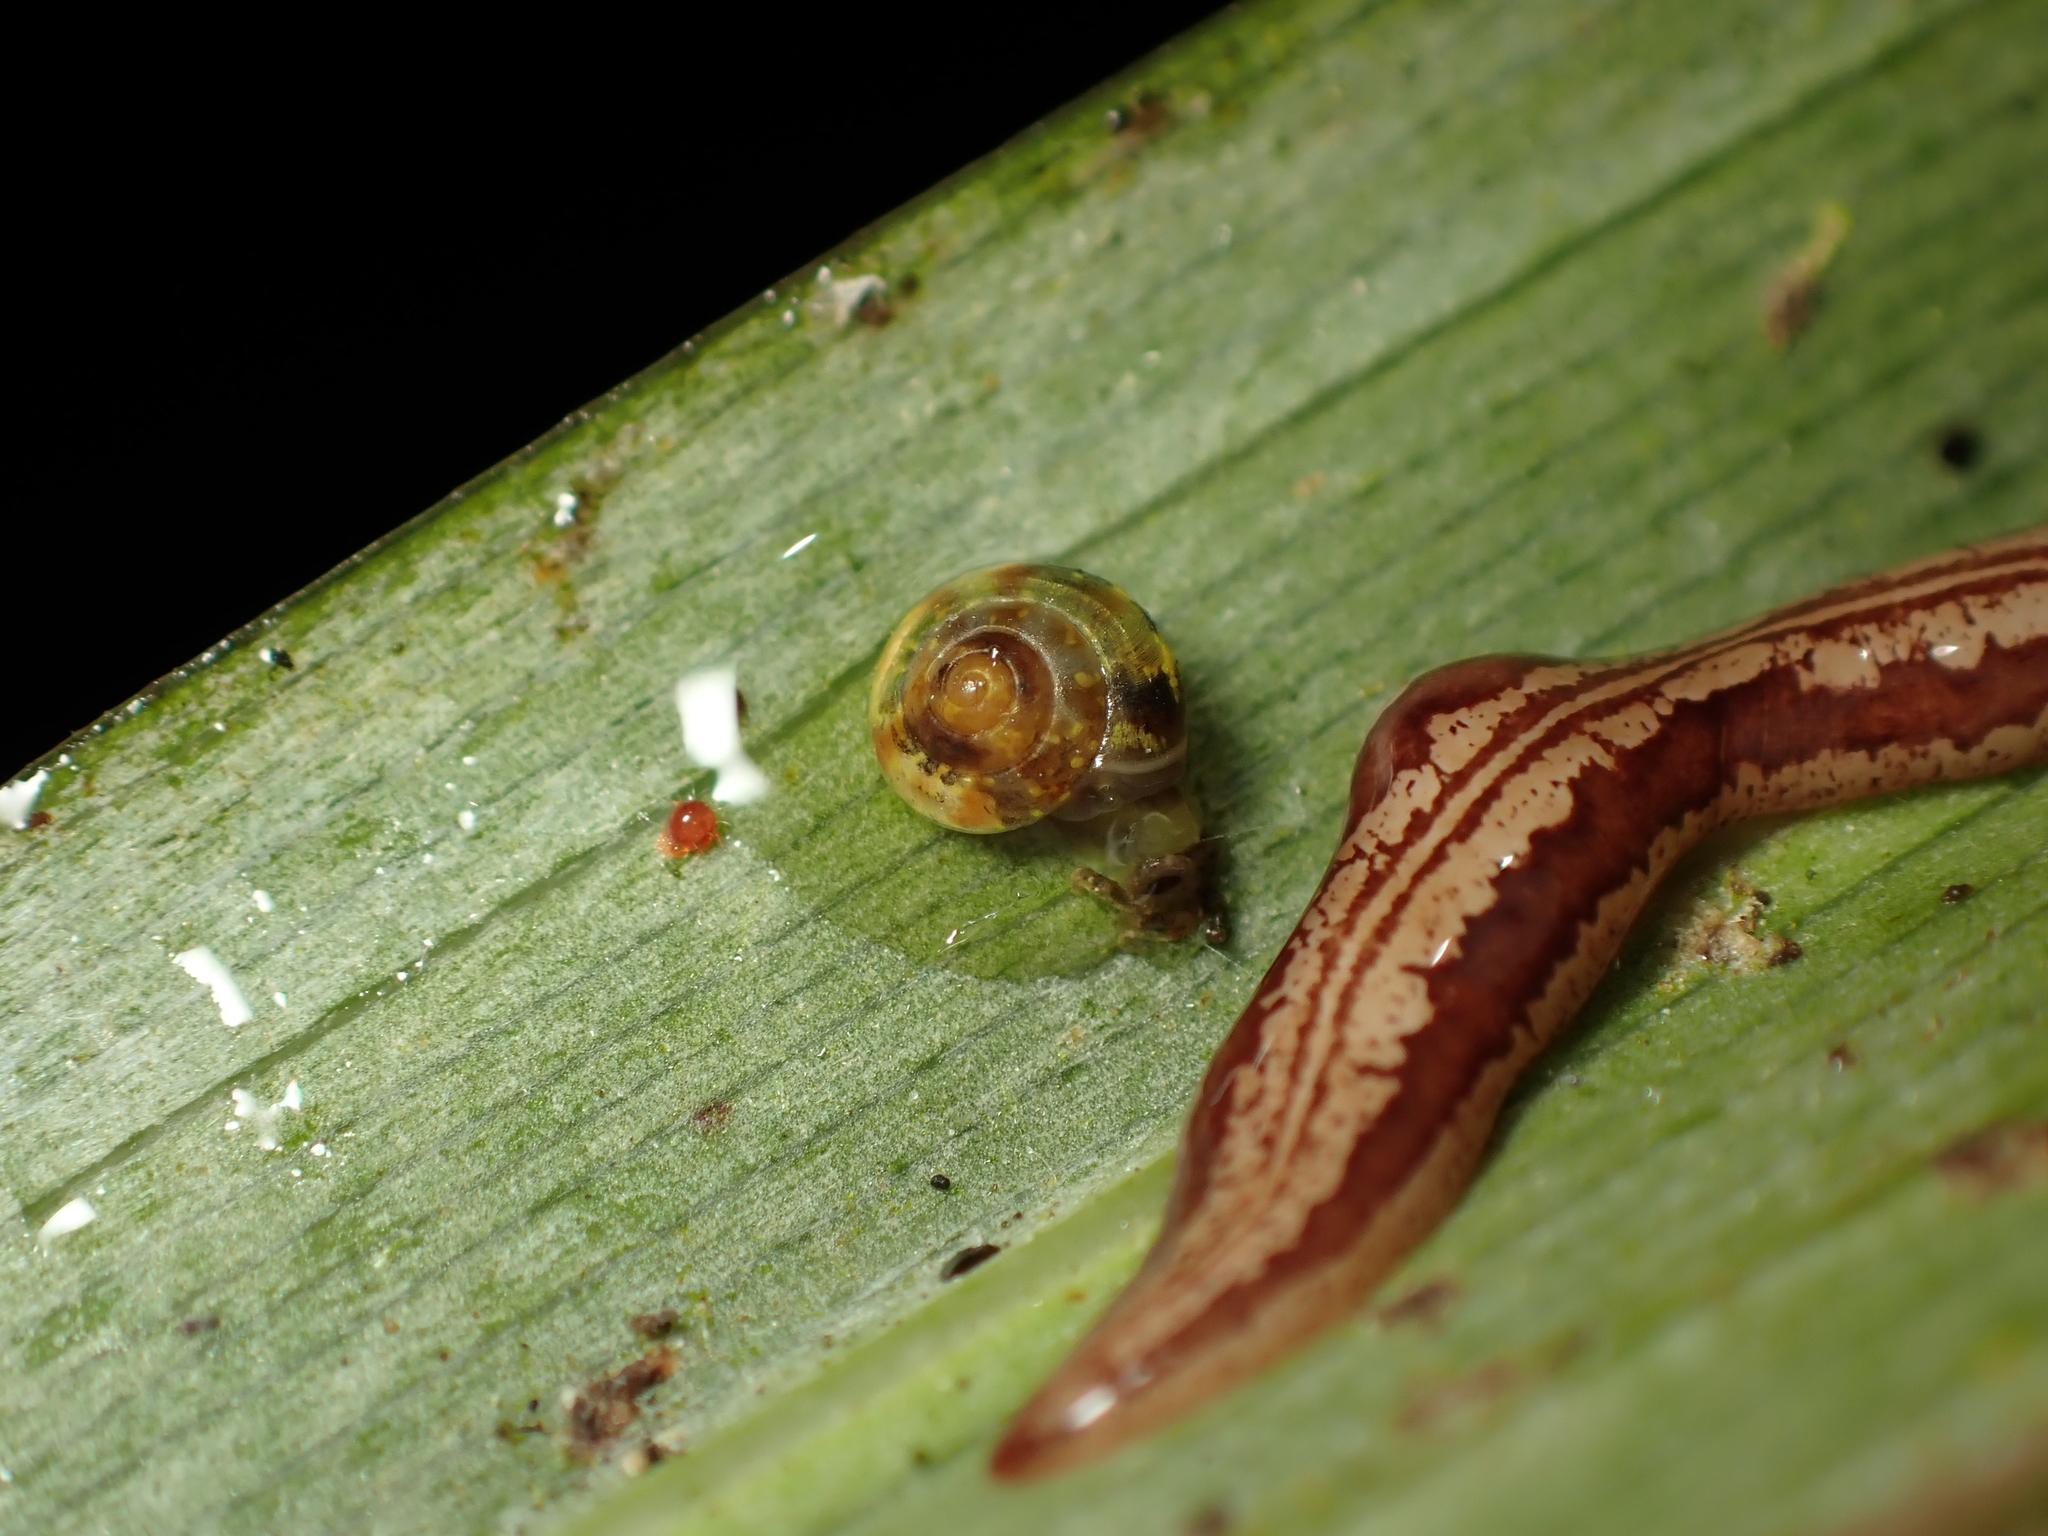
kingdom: Animalia
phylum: Platyhelminthes
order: Tricladida
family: Geoplanidae
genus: Artioposthia
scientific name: Artioposthia polyadoides
